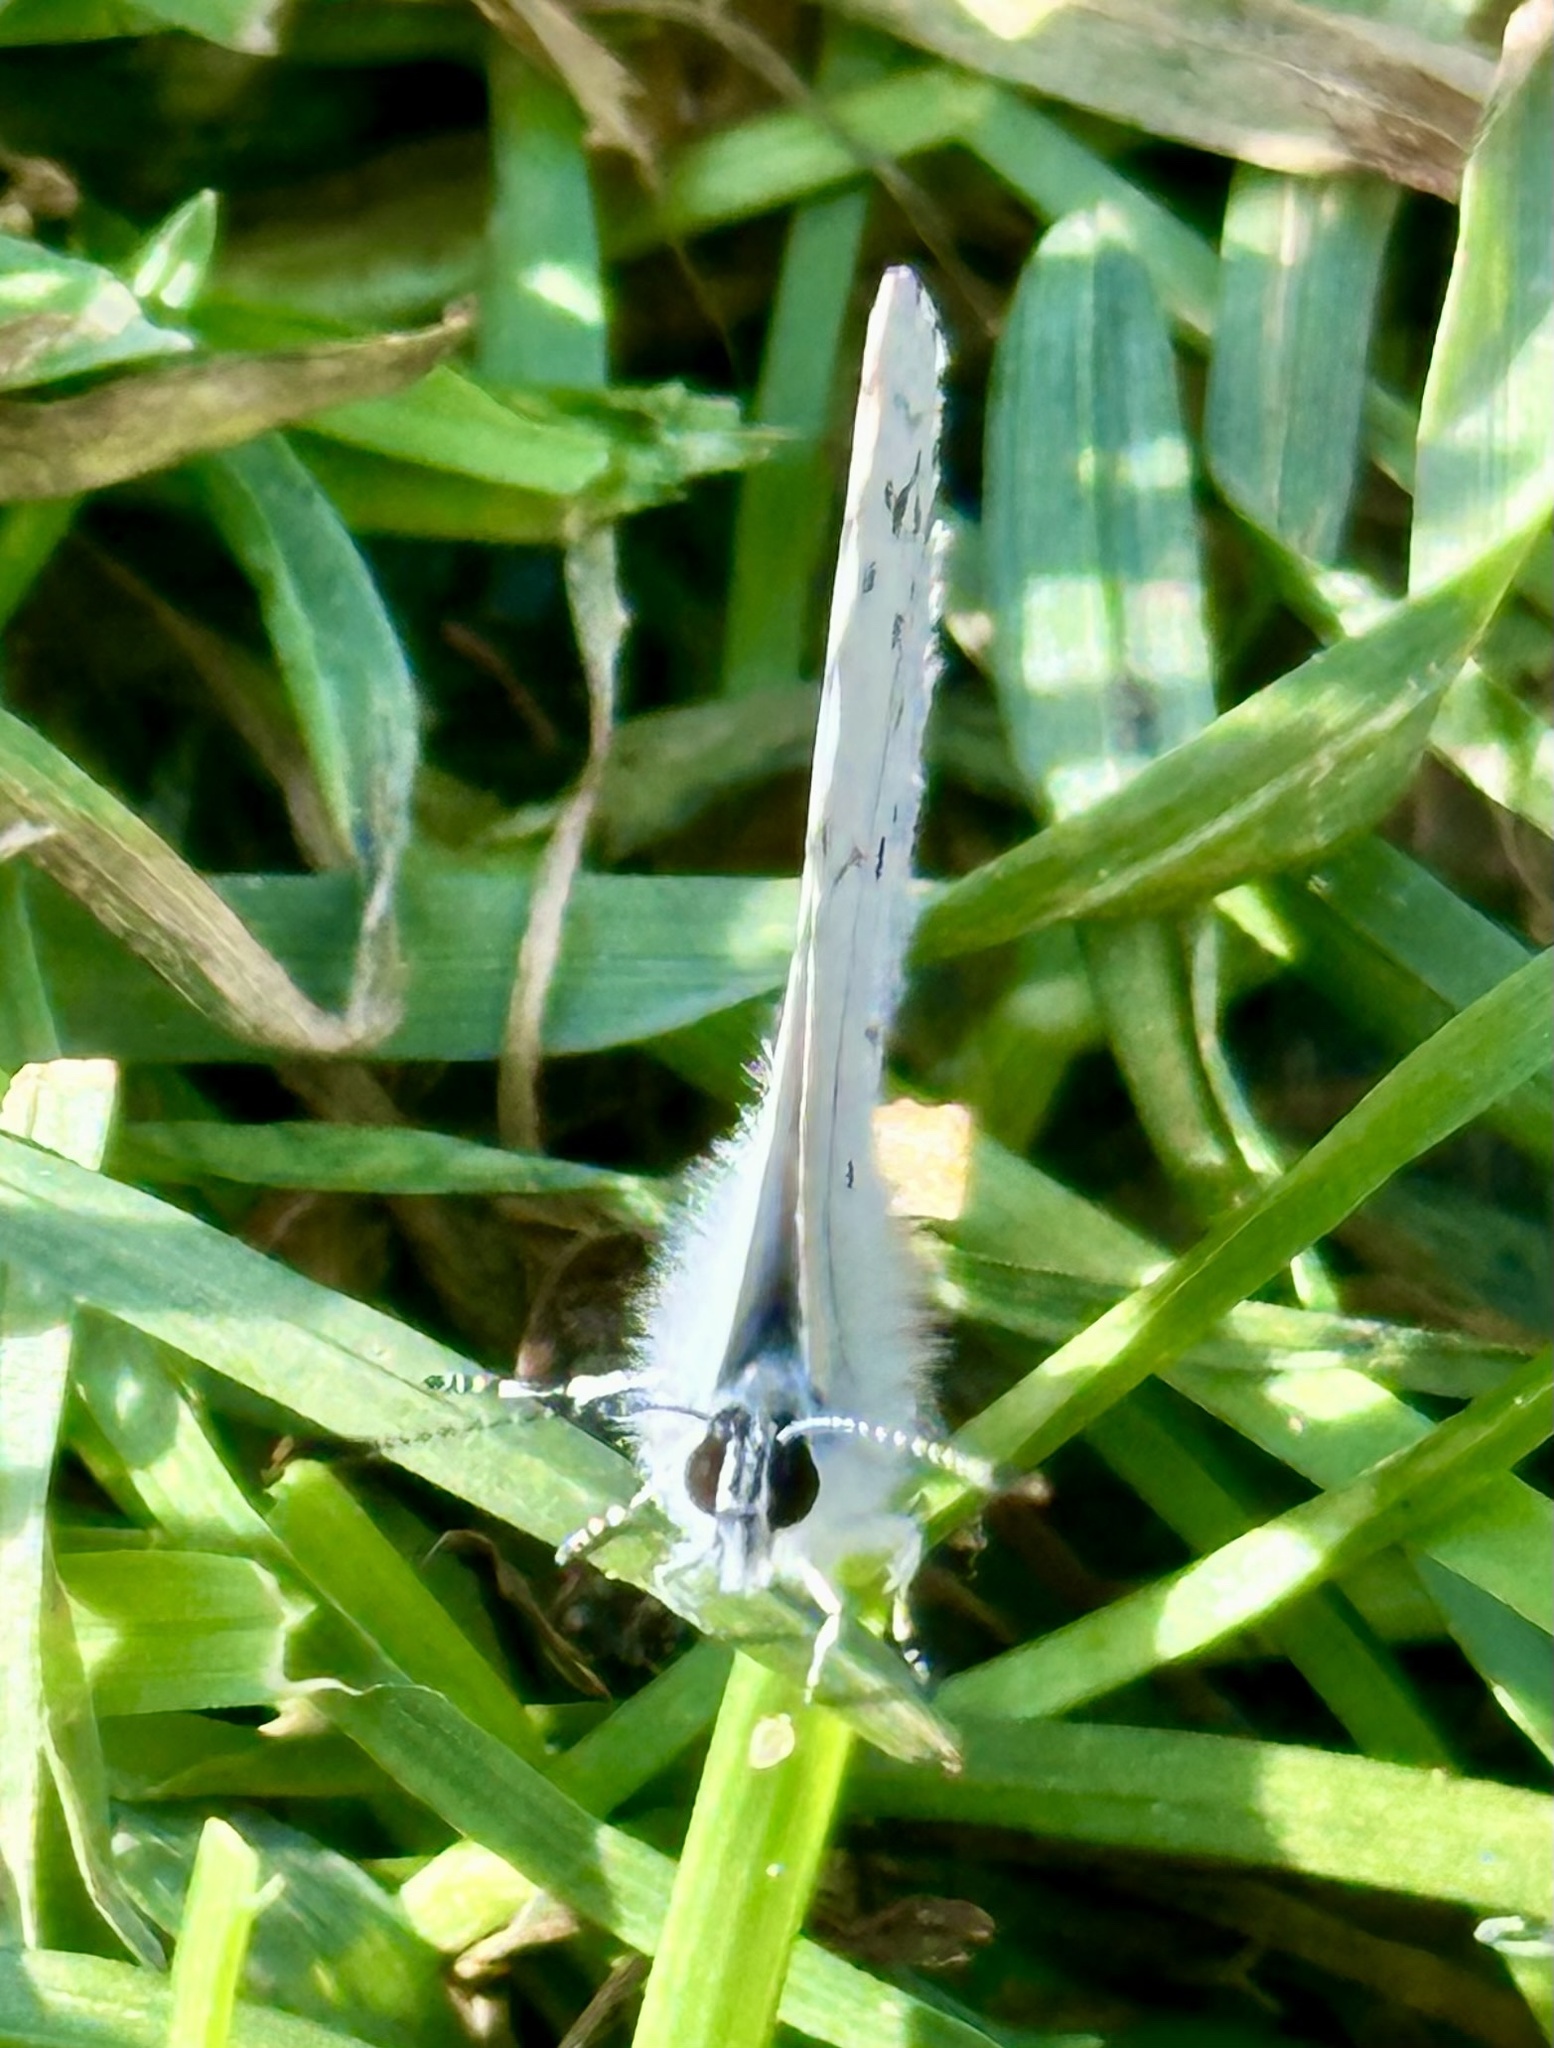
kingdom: Animalia
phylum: Arthropoda
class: Insecta
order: Lepidoptera
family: Lycaenidae
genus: Cyaniris
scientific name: Cyaniris neglecta
